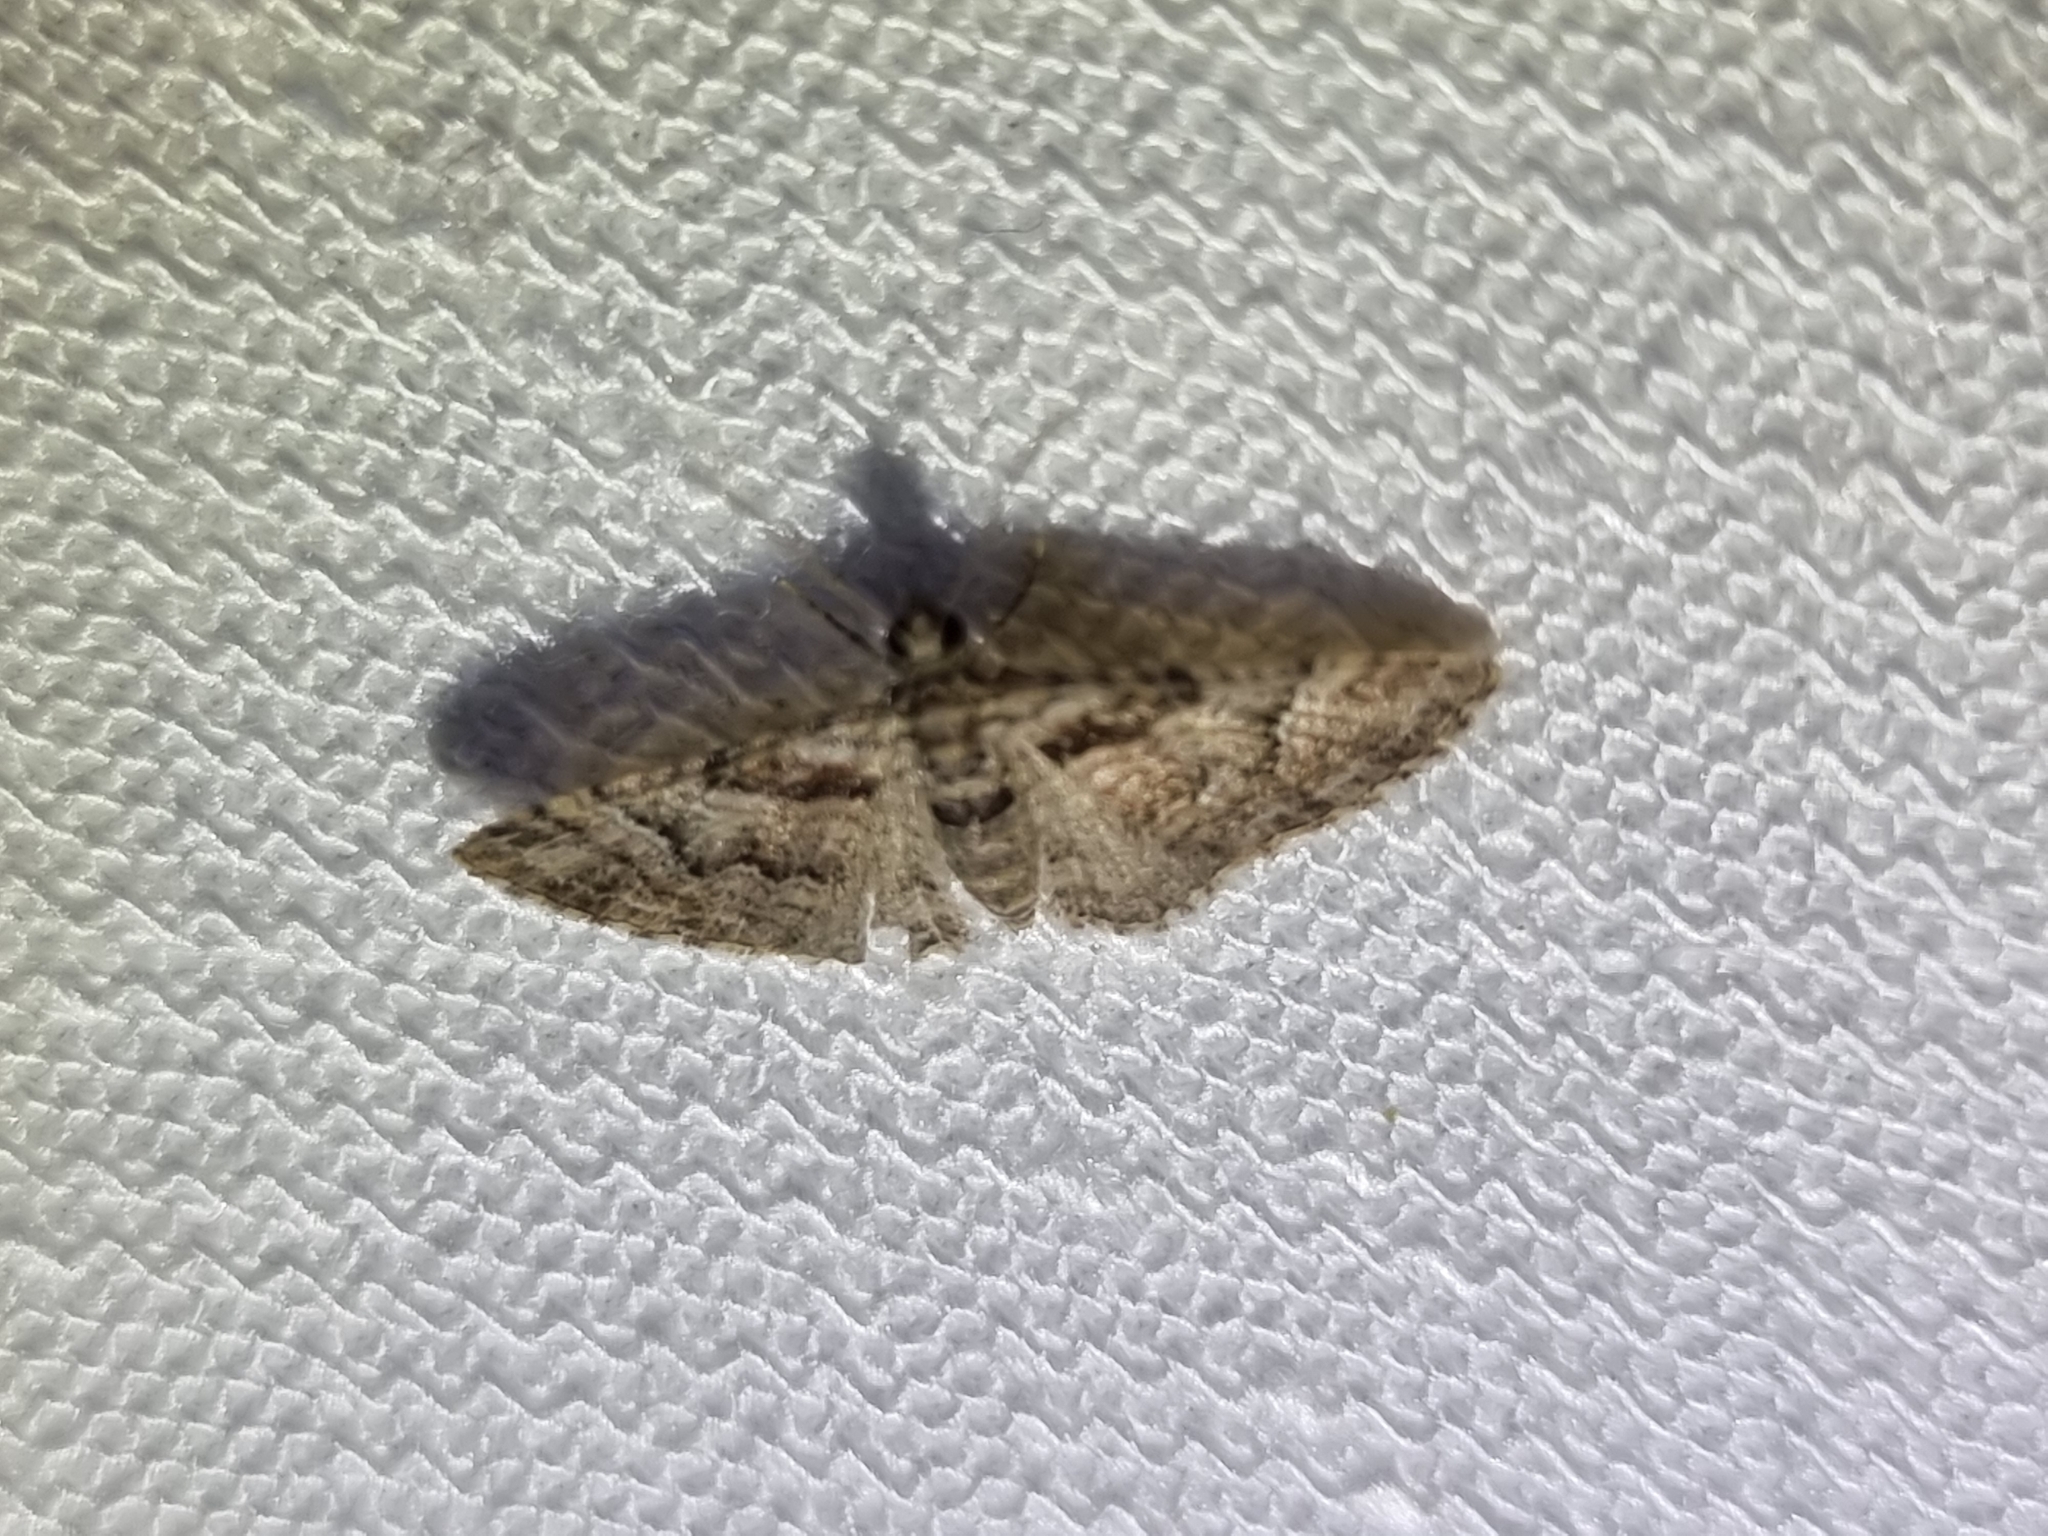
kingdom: Animalia
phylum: Arthropoda
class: Insecta
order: Lepidoptera
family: Geometridae
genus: Mnesiloba
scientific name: Mnesiloba eupitheciata
